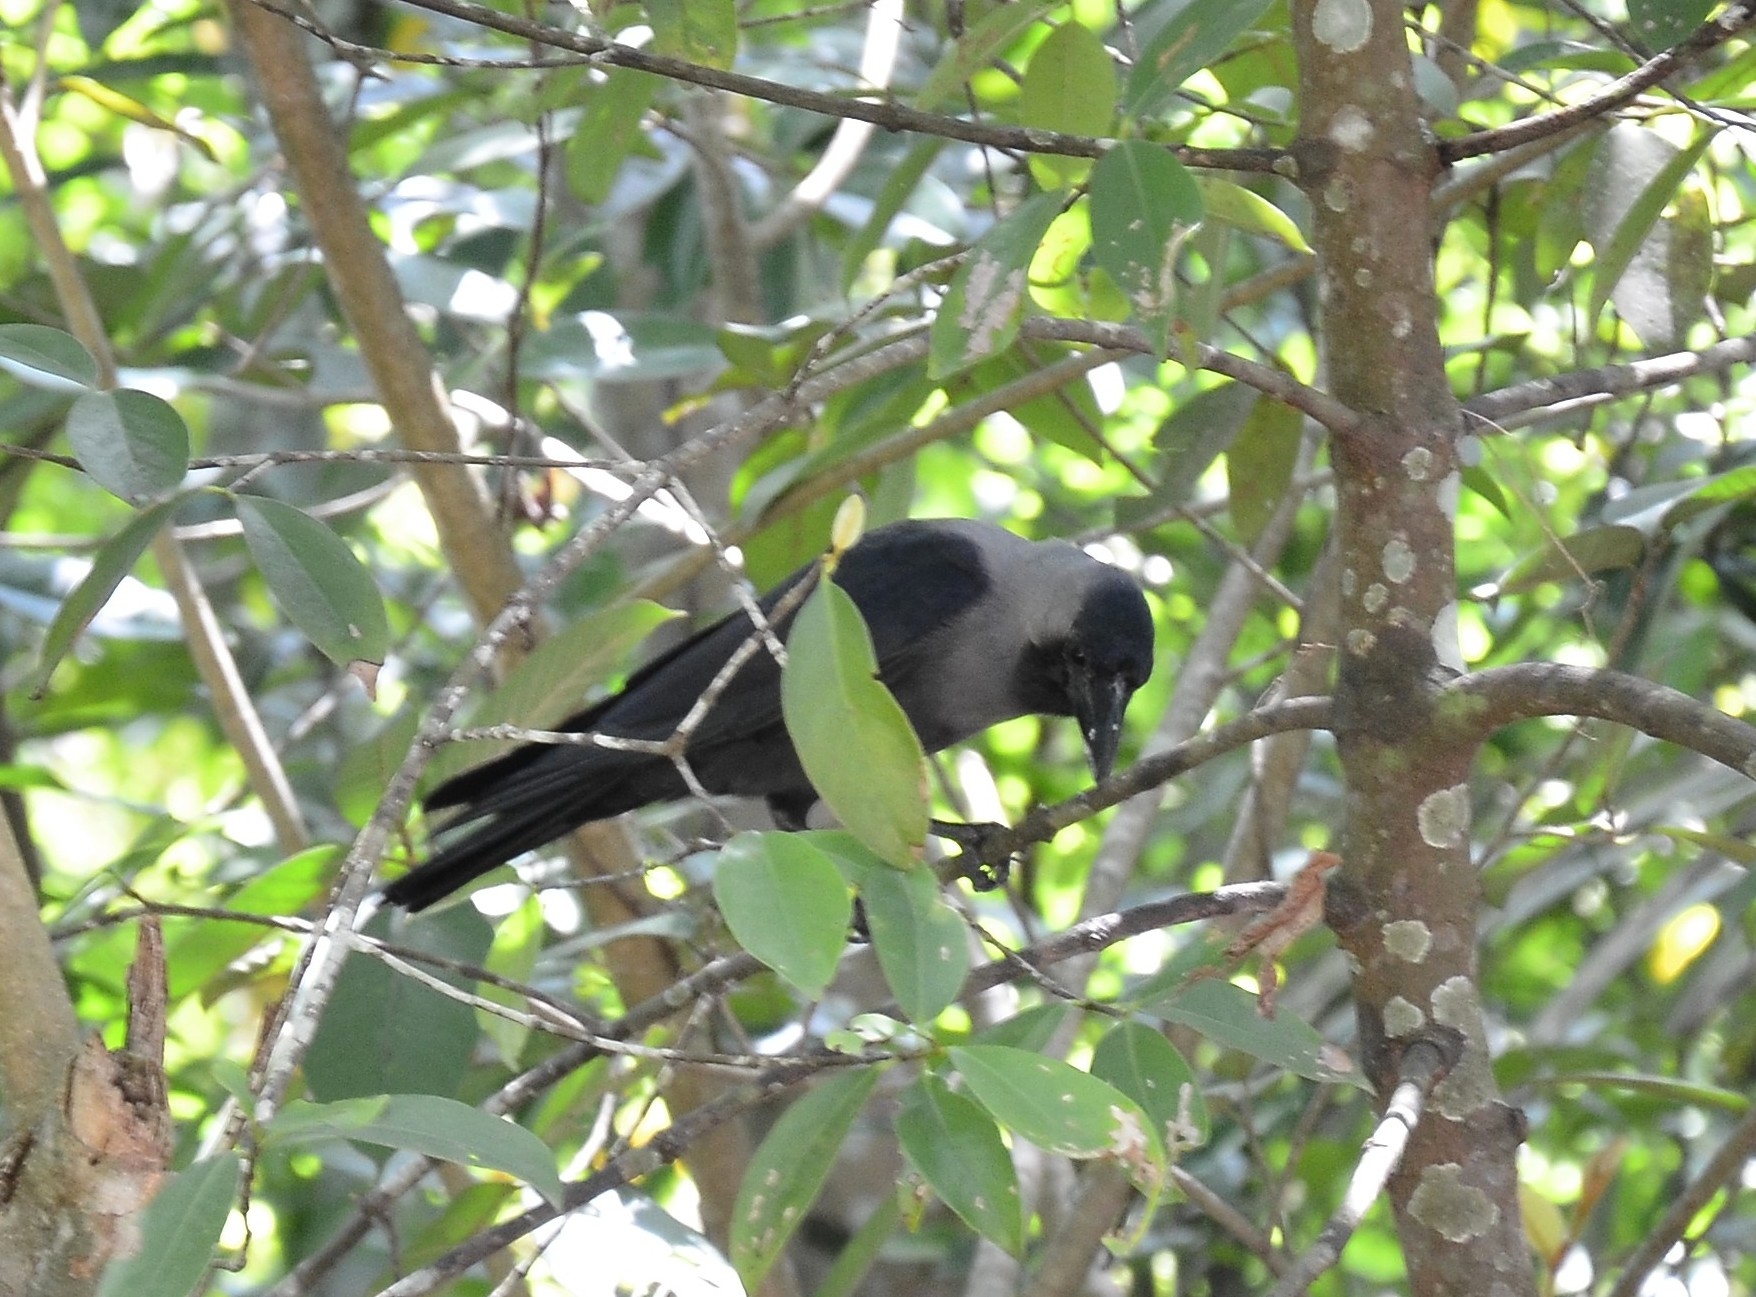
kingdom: Animalia
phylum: Chordata
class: Aves
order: Passeriformes
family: Corvidae
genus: Corvus
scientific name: Corvus splendens
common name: House crow
